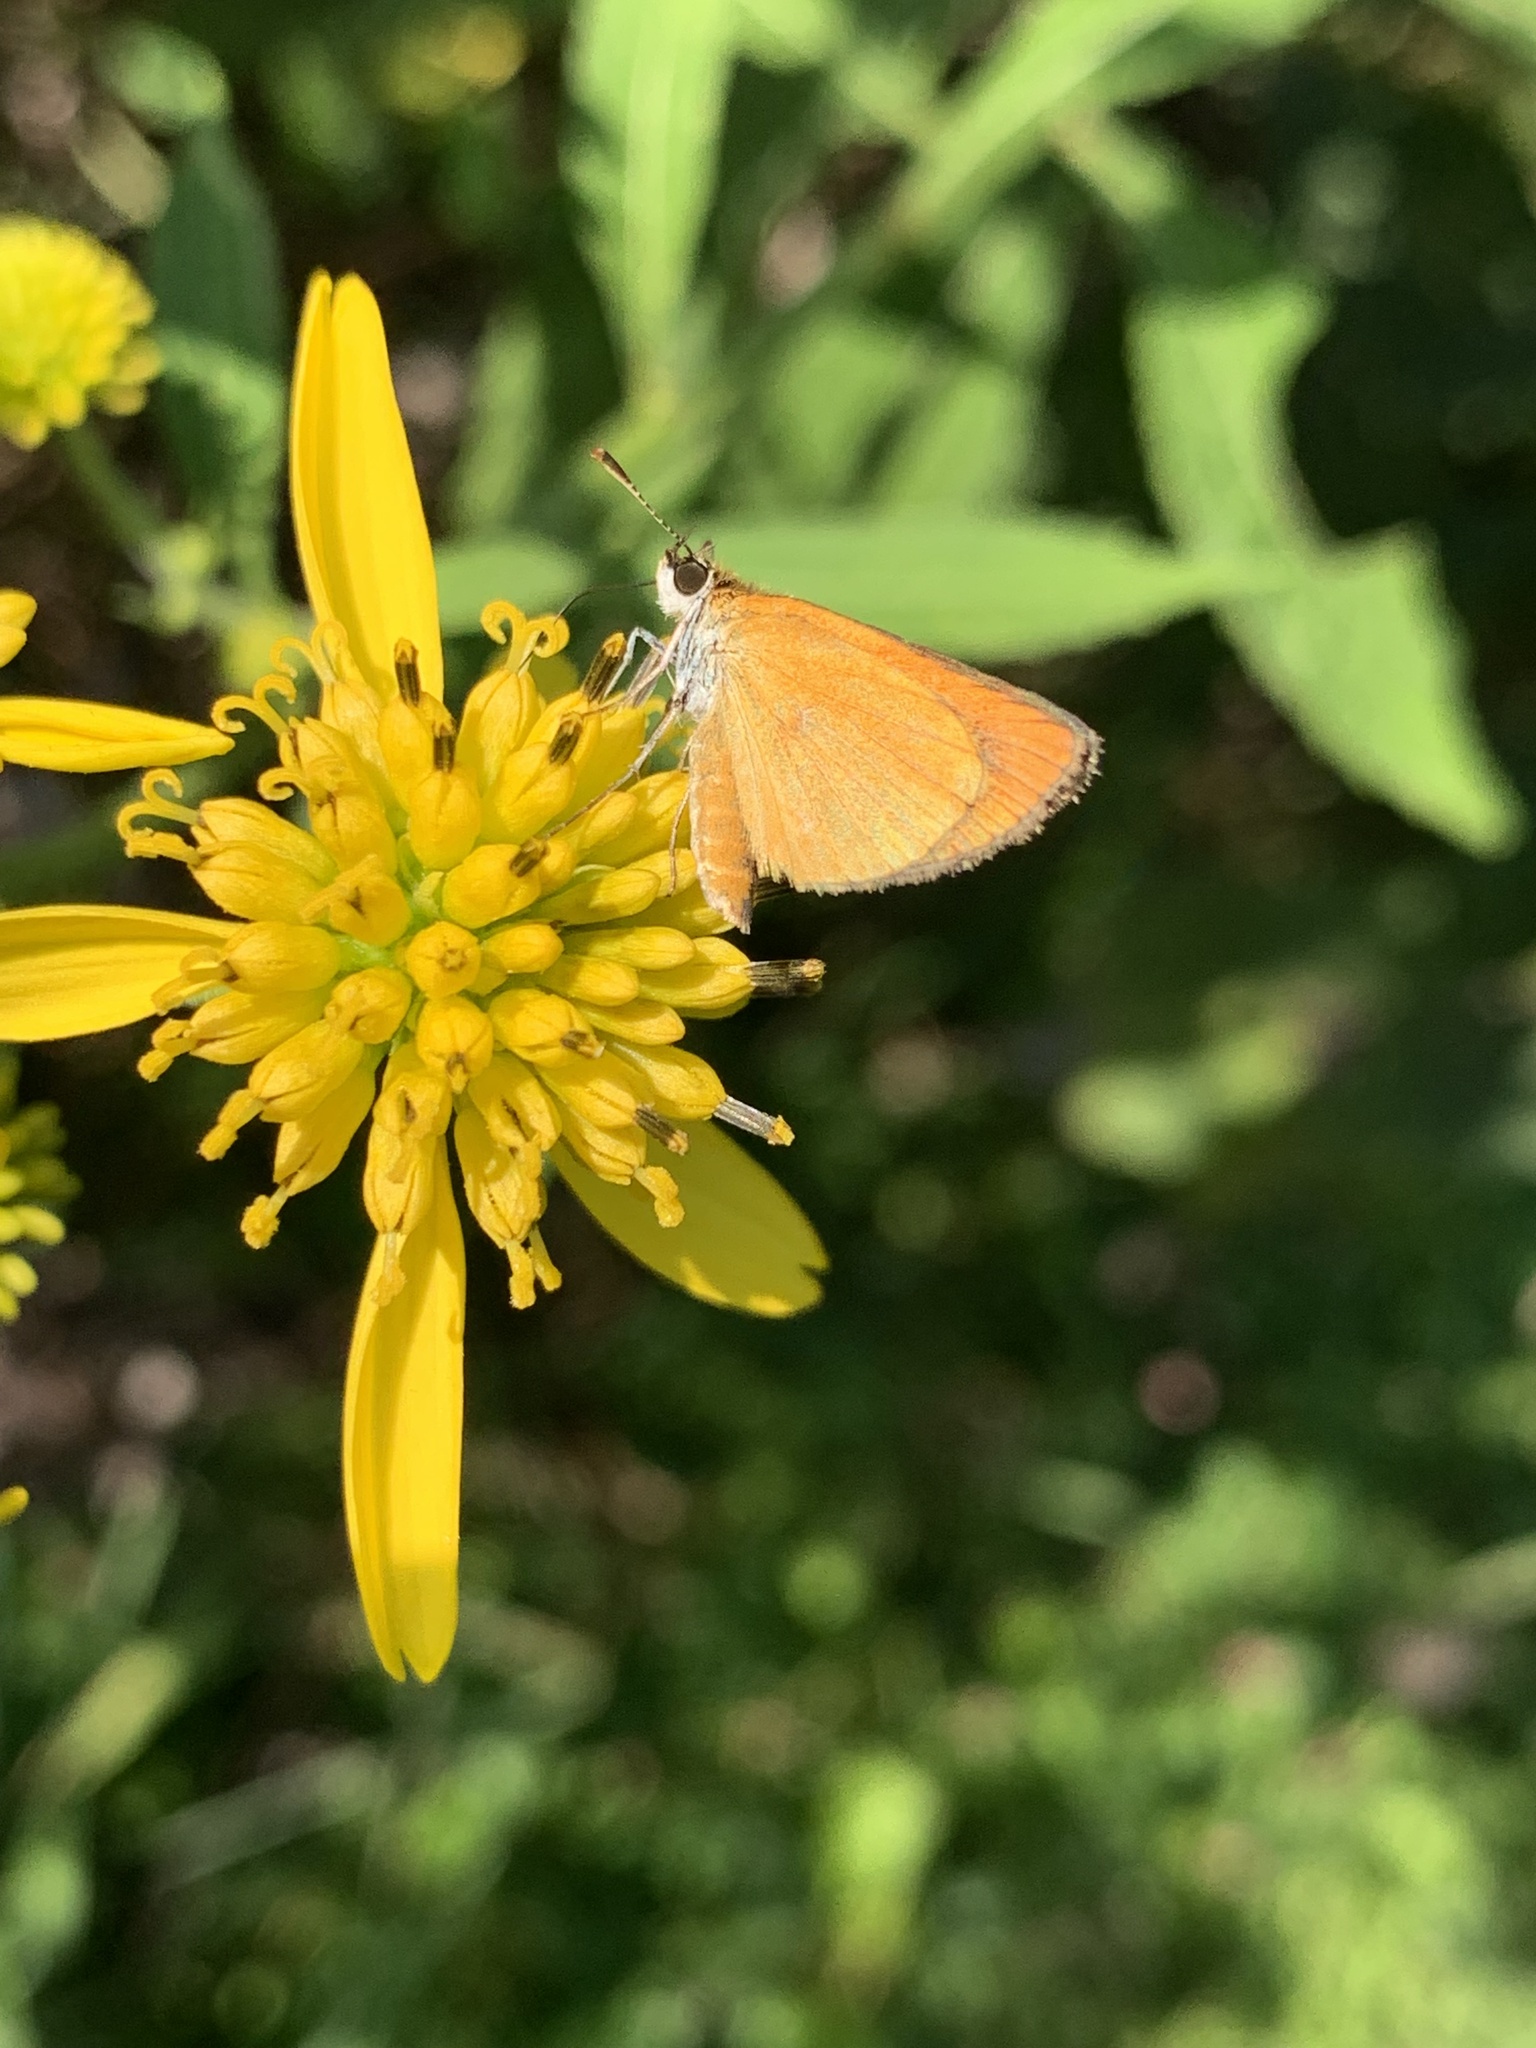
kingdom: Animalia
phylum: Arthropoda
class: Insecta
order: Lepidoptera
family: Hesperiidae
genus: Ancyloxypha
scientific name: Ancyloxypha numitor
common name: Least skipper
